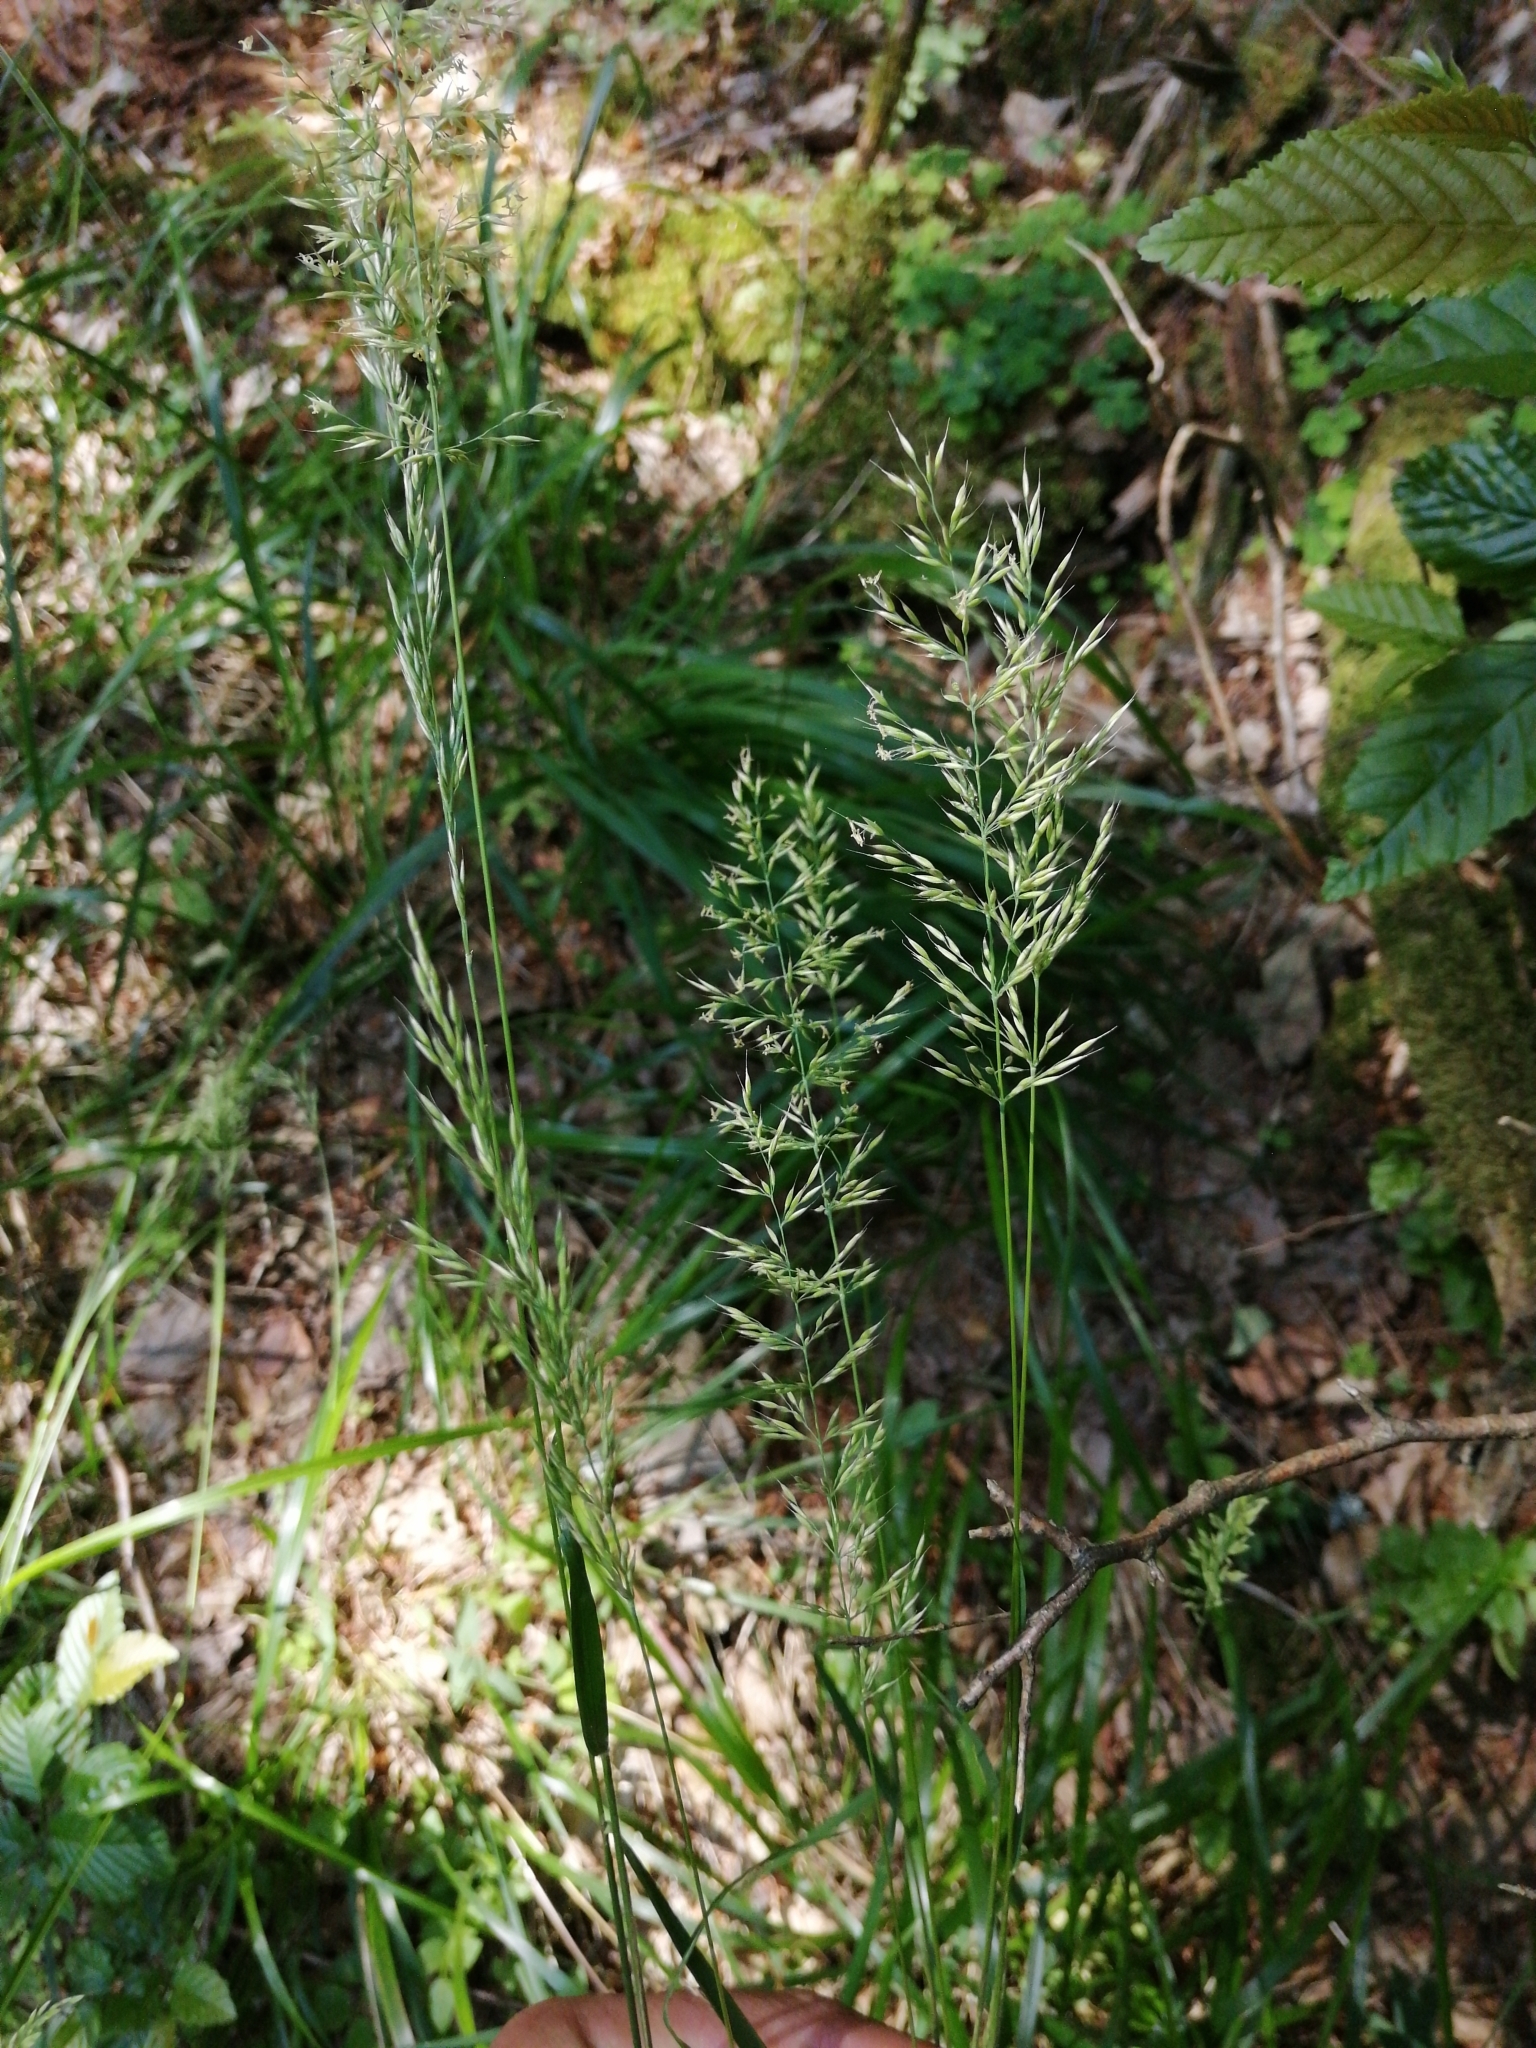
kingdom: Plantae
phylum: Tracheophyta
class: Liliopsida
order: Poales
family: Poaceae
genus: Calamagrostis
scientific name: Calamagrostis arundinacea
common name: Metskastik
